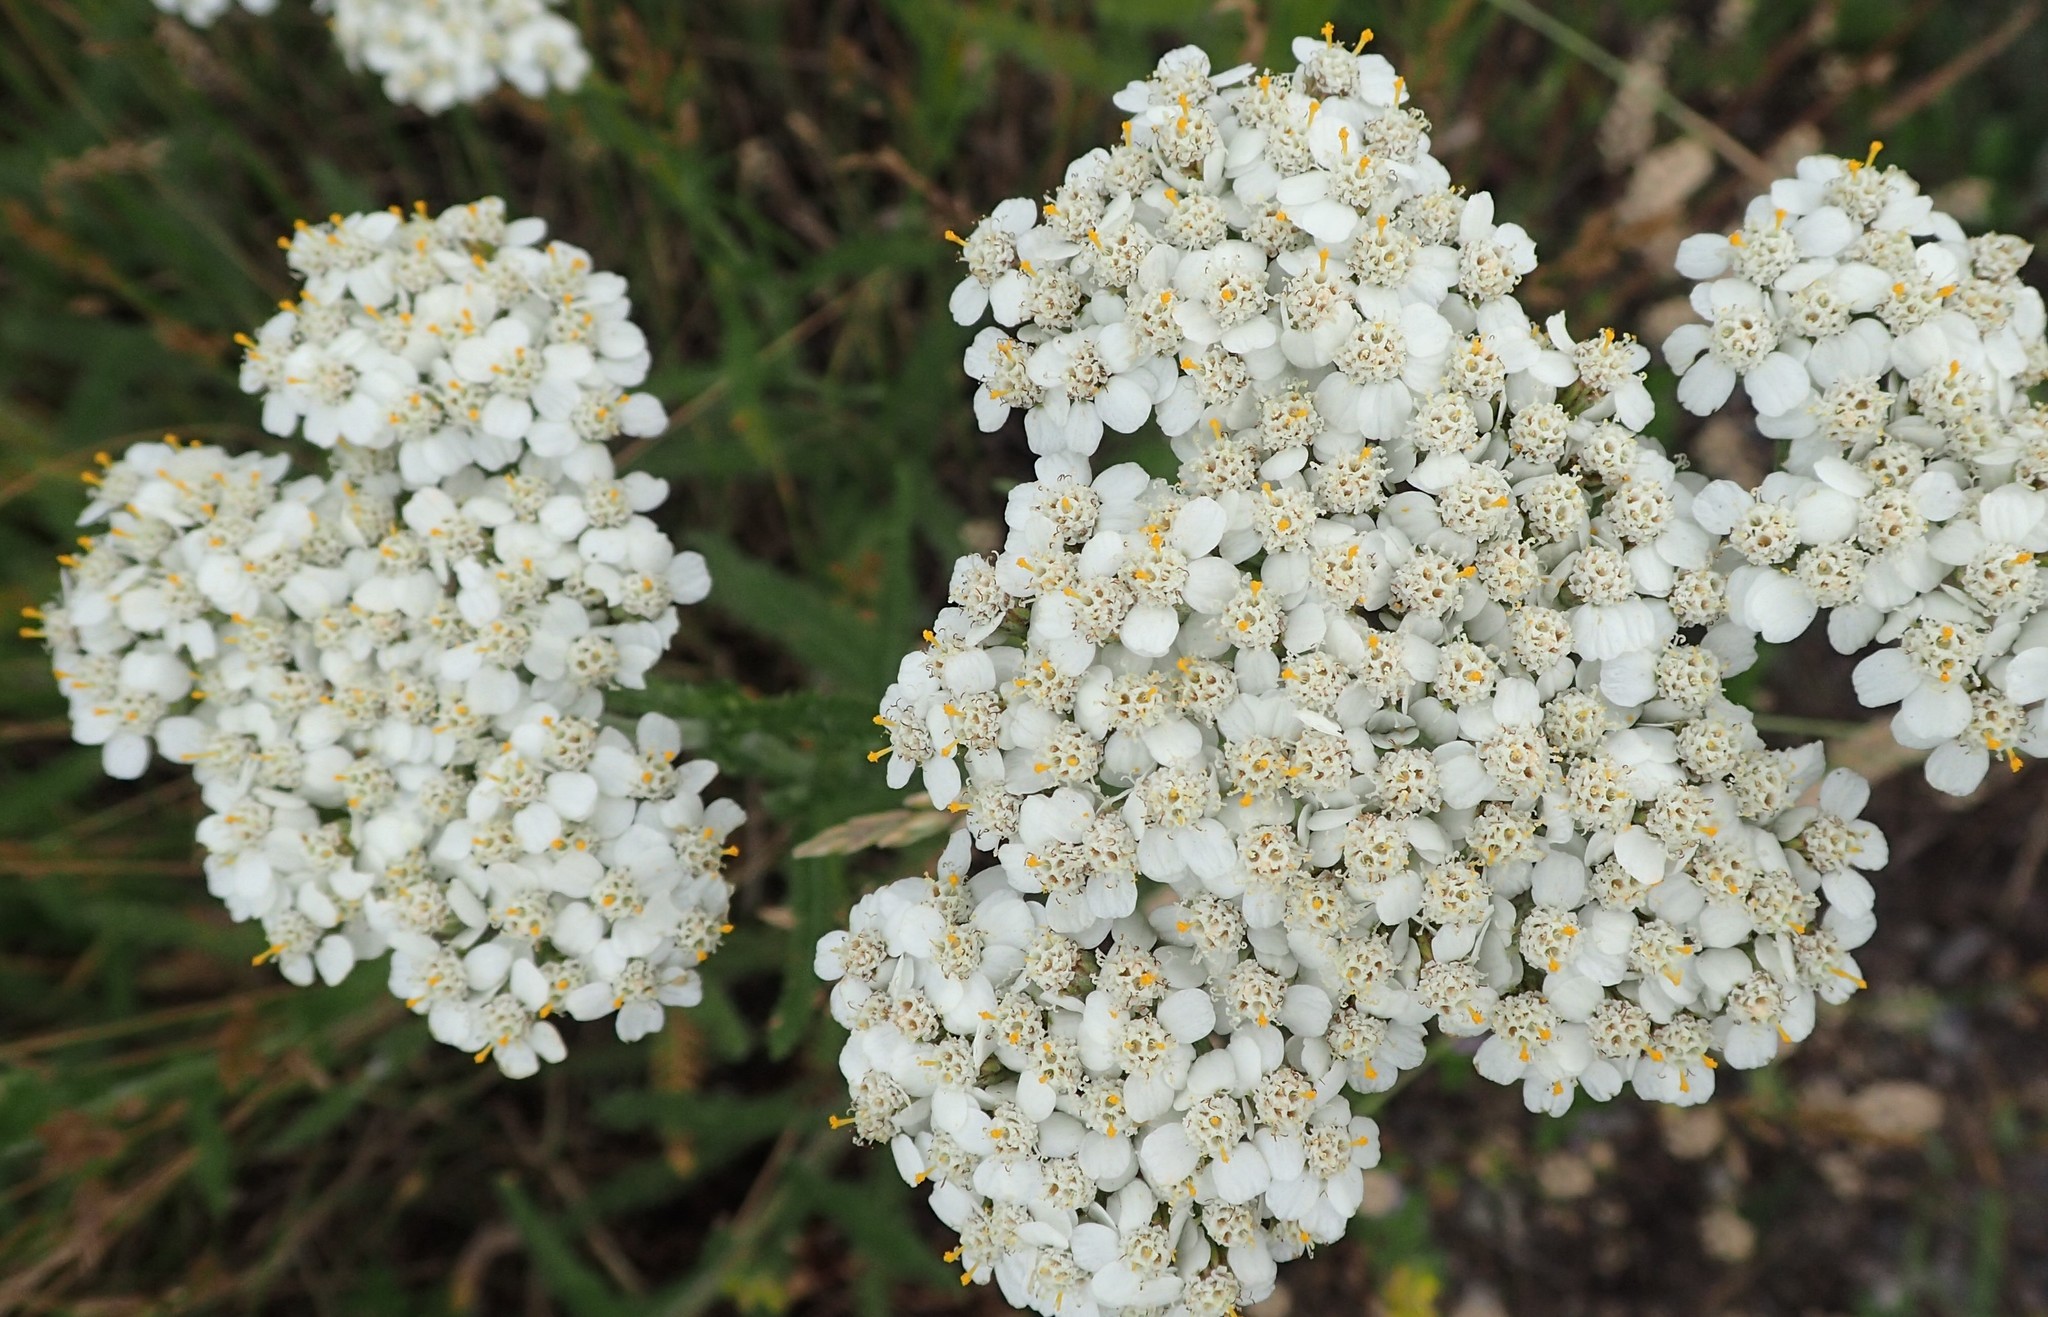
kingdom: Plantae
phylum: Tracheophyta
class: Magnoliopsida
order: Asterales
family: Asteraceae
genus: Achillea
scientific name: Achillea millefolium
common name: Yarrow
